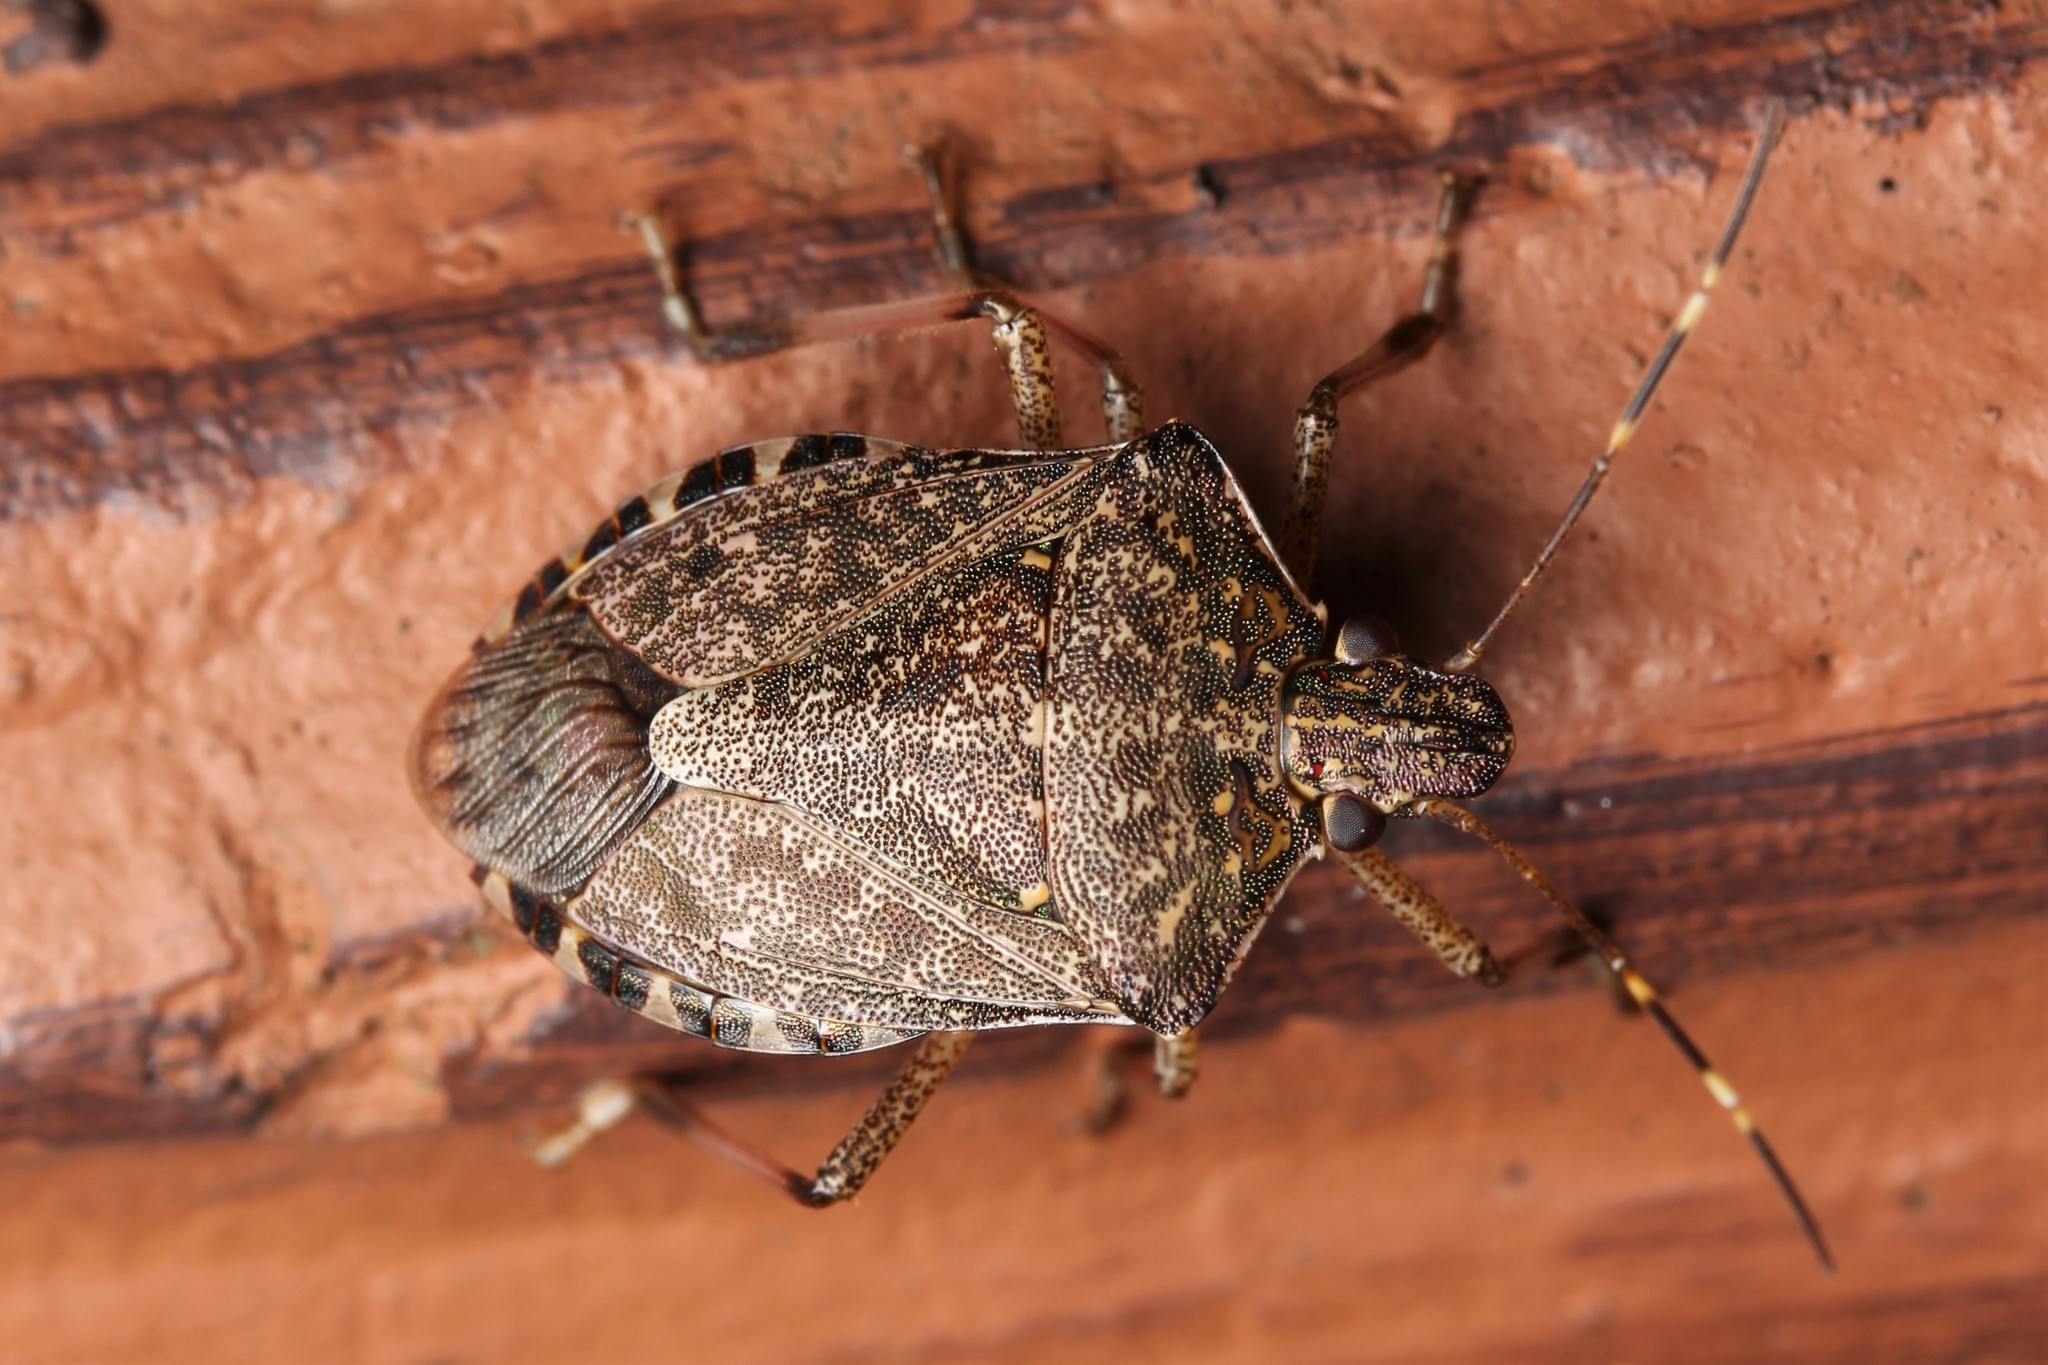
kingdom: Animalia
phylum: Arthropoda
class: Insecta
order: Hemiptera
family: Pentatomidae
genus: Halyomorpha
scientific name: Halyomorpha halys
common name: Brown marmorated stink bug
